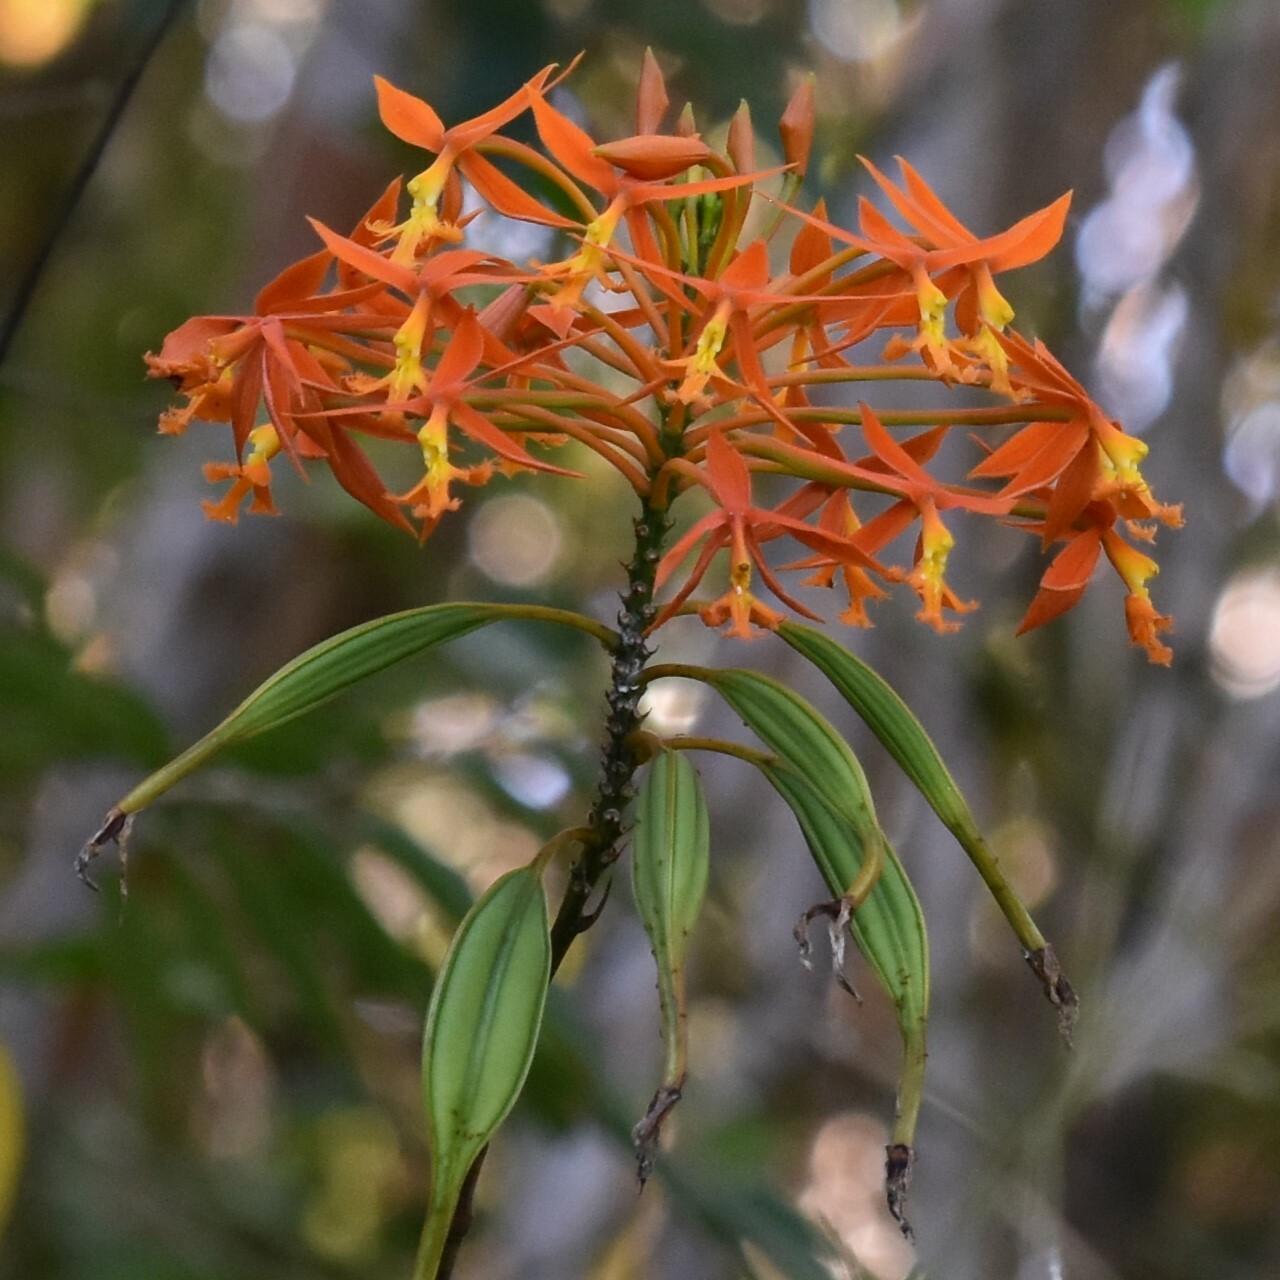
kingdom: Plantae
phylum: Tracheophyta
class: Liliopsida
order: Asparagales
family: Orchidaceae
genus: Epidendrum
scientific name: Epidendrum radicans
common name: Fire star orchid
